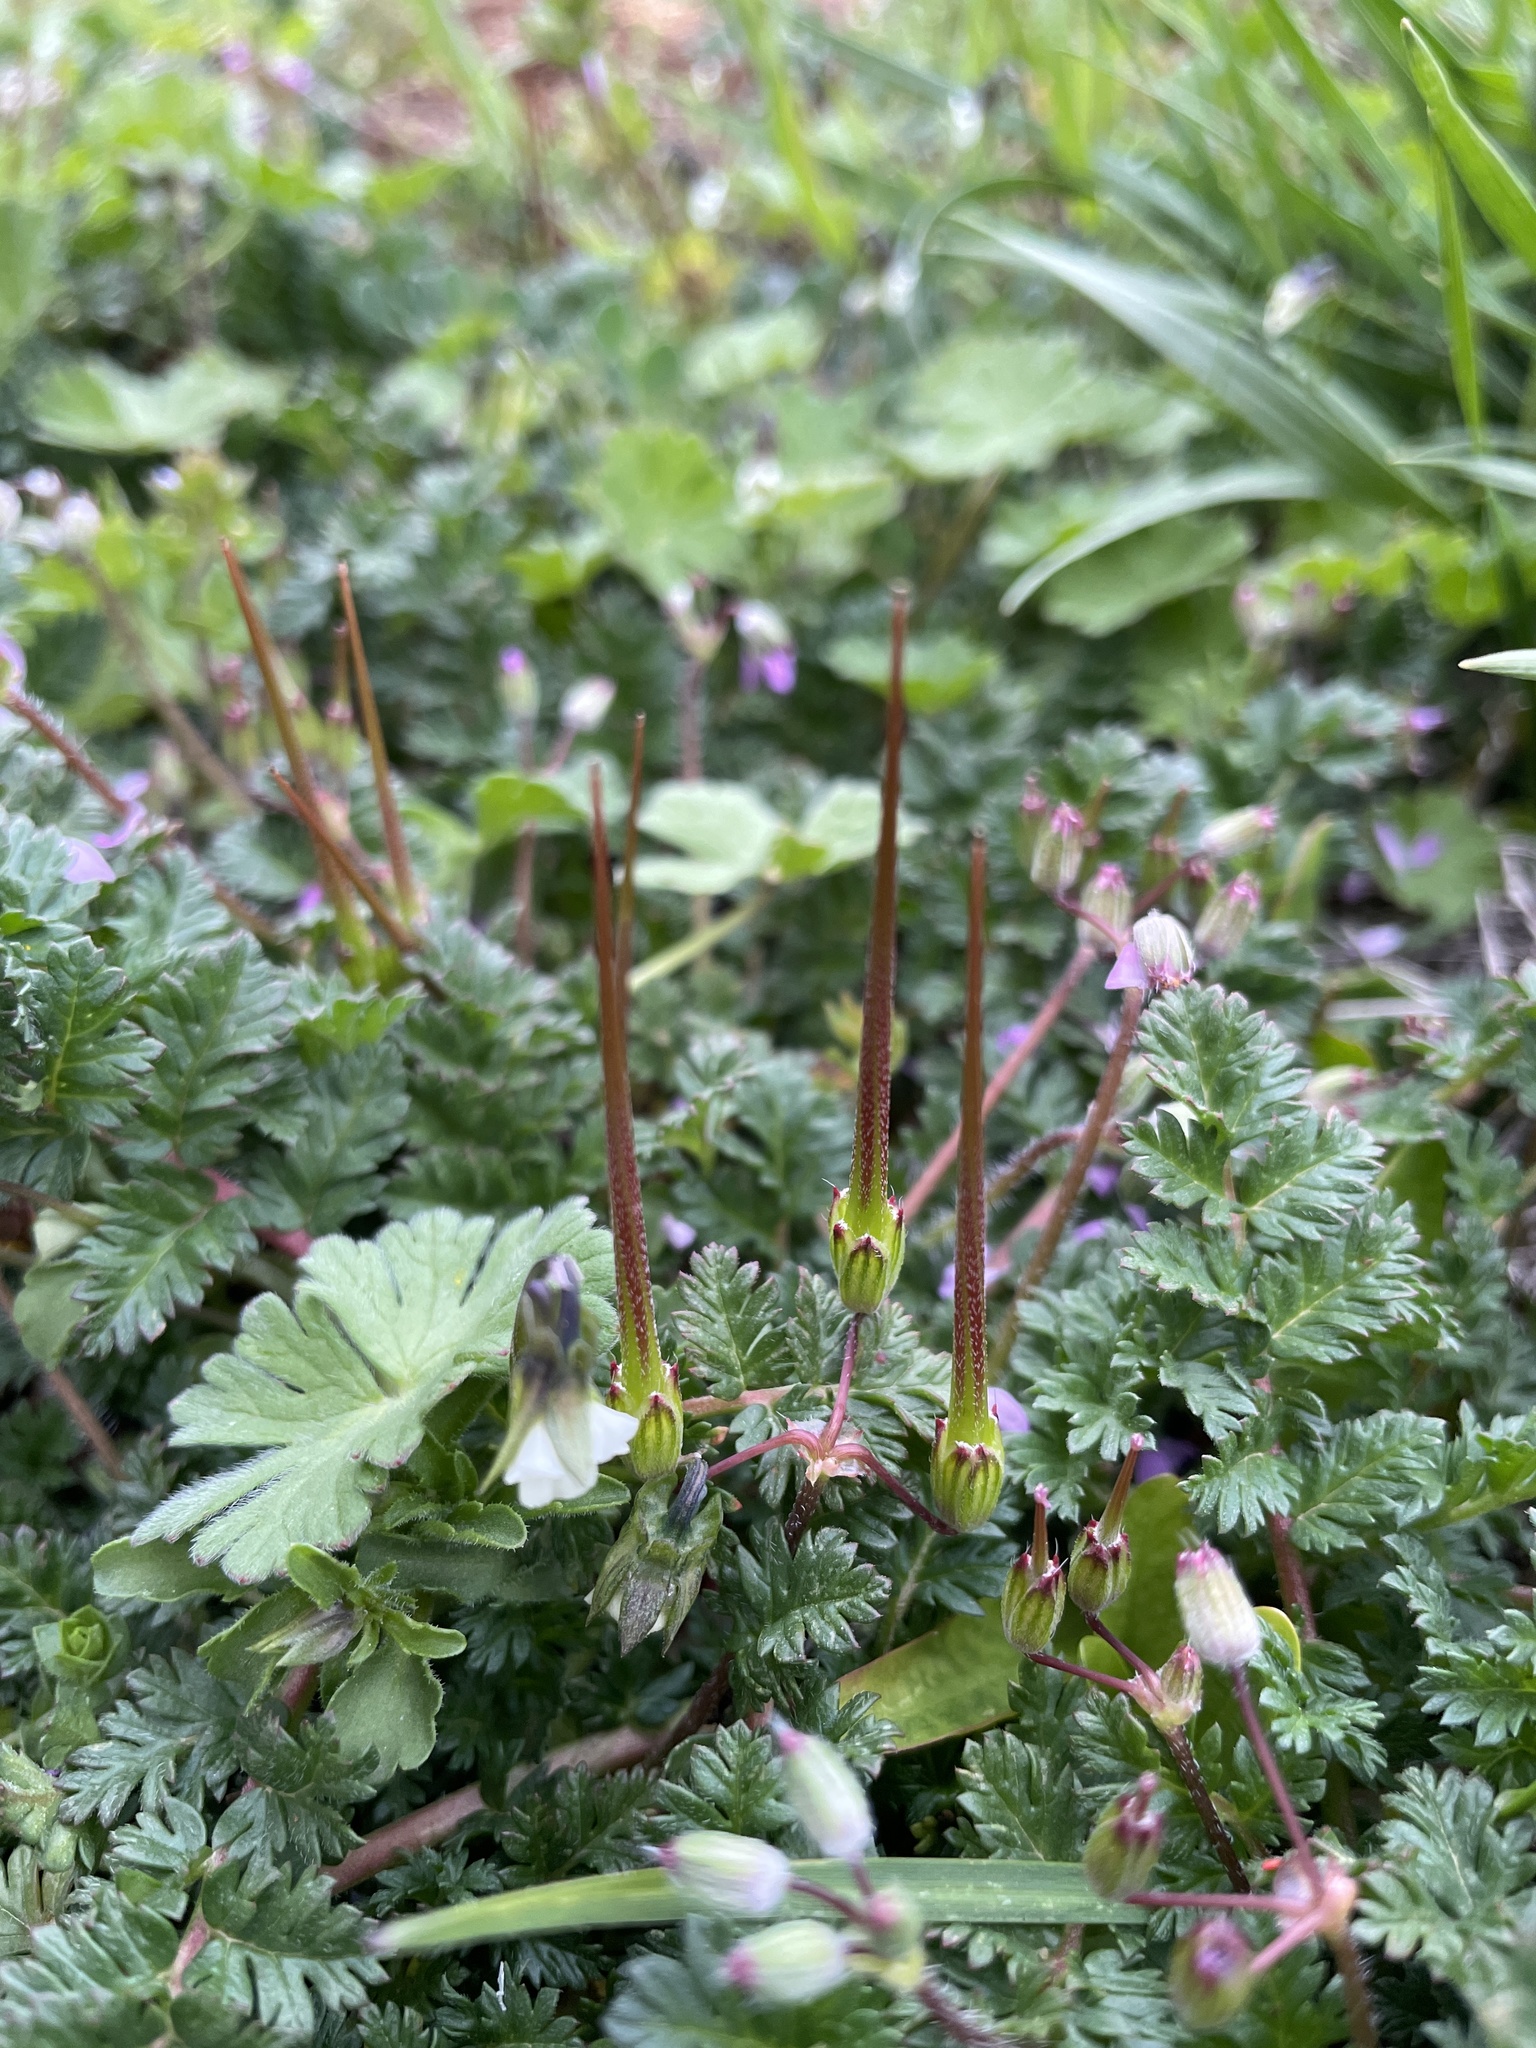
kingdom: Plantae
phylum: Tracheophyta
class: Magnoliopsida
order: Geraniales
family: Geraniaceae
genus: Erodium
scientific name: Erodium cicutarium
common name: Common stork's-bill
